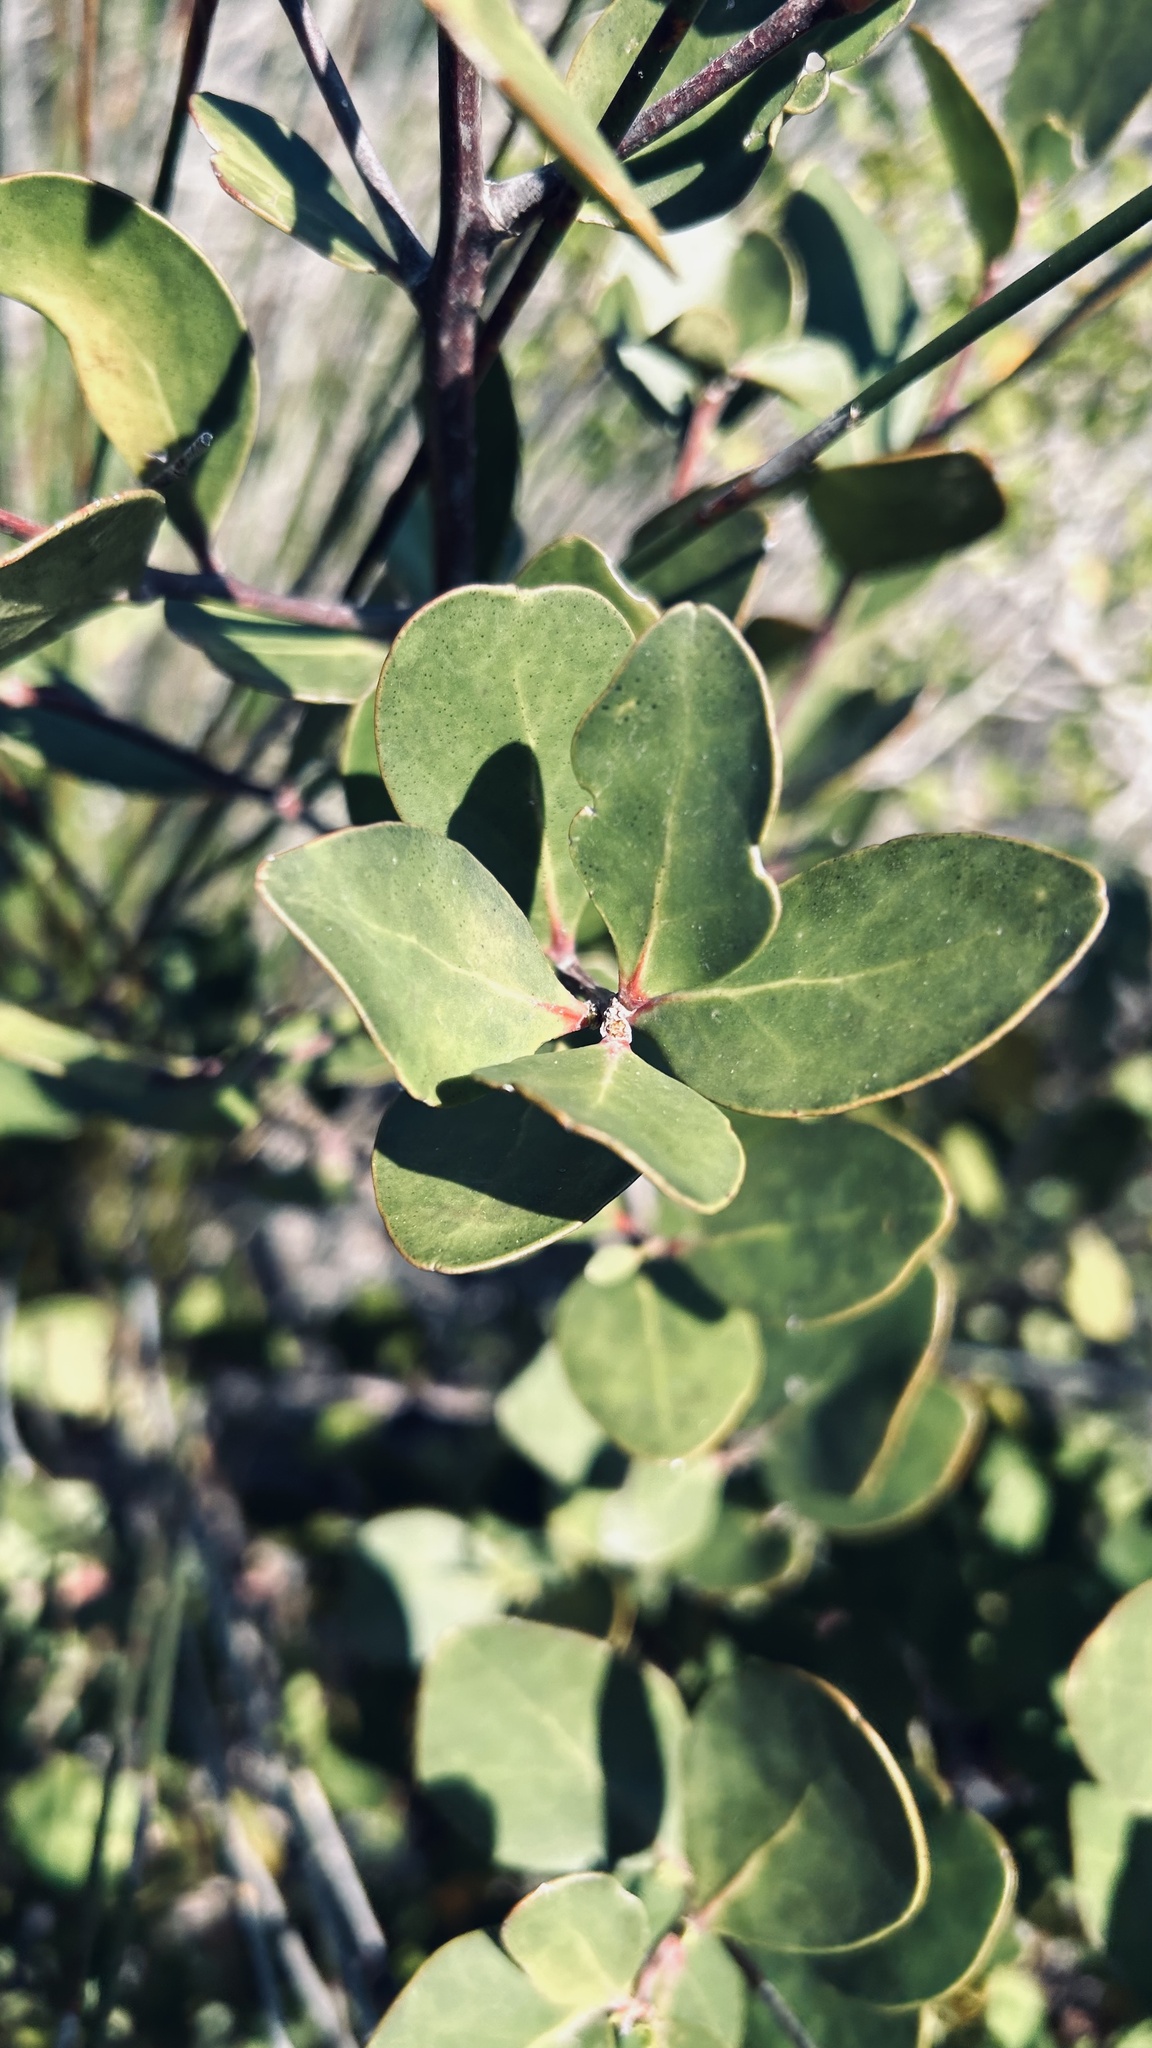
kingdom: Plantae
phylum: Tracheophyta
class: Magnoliopsida
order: Ericales
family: Ebenaceae
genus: Euclea
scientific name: Euclea racemosa
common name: Dune guarri
